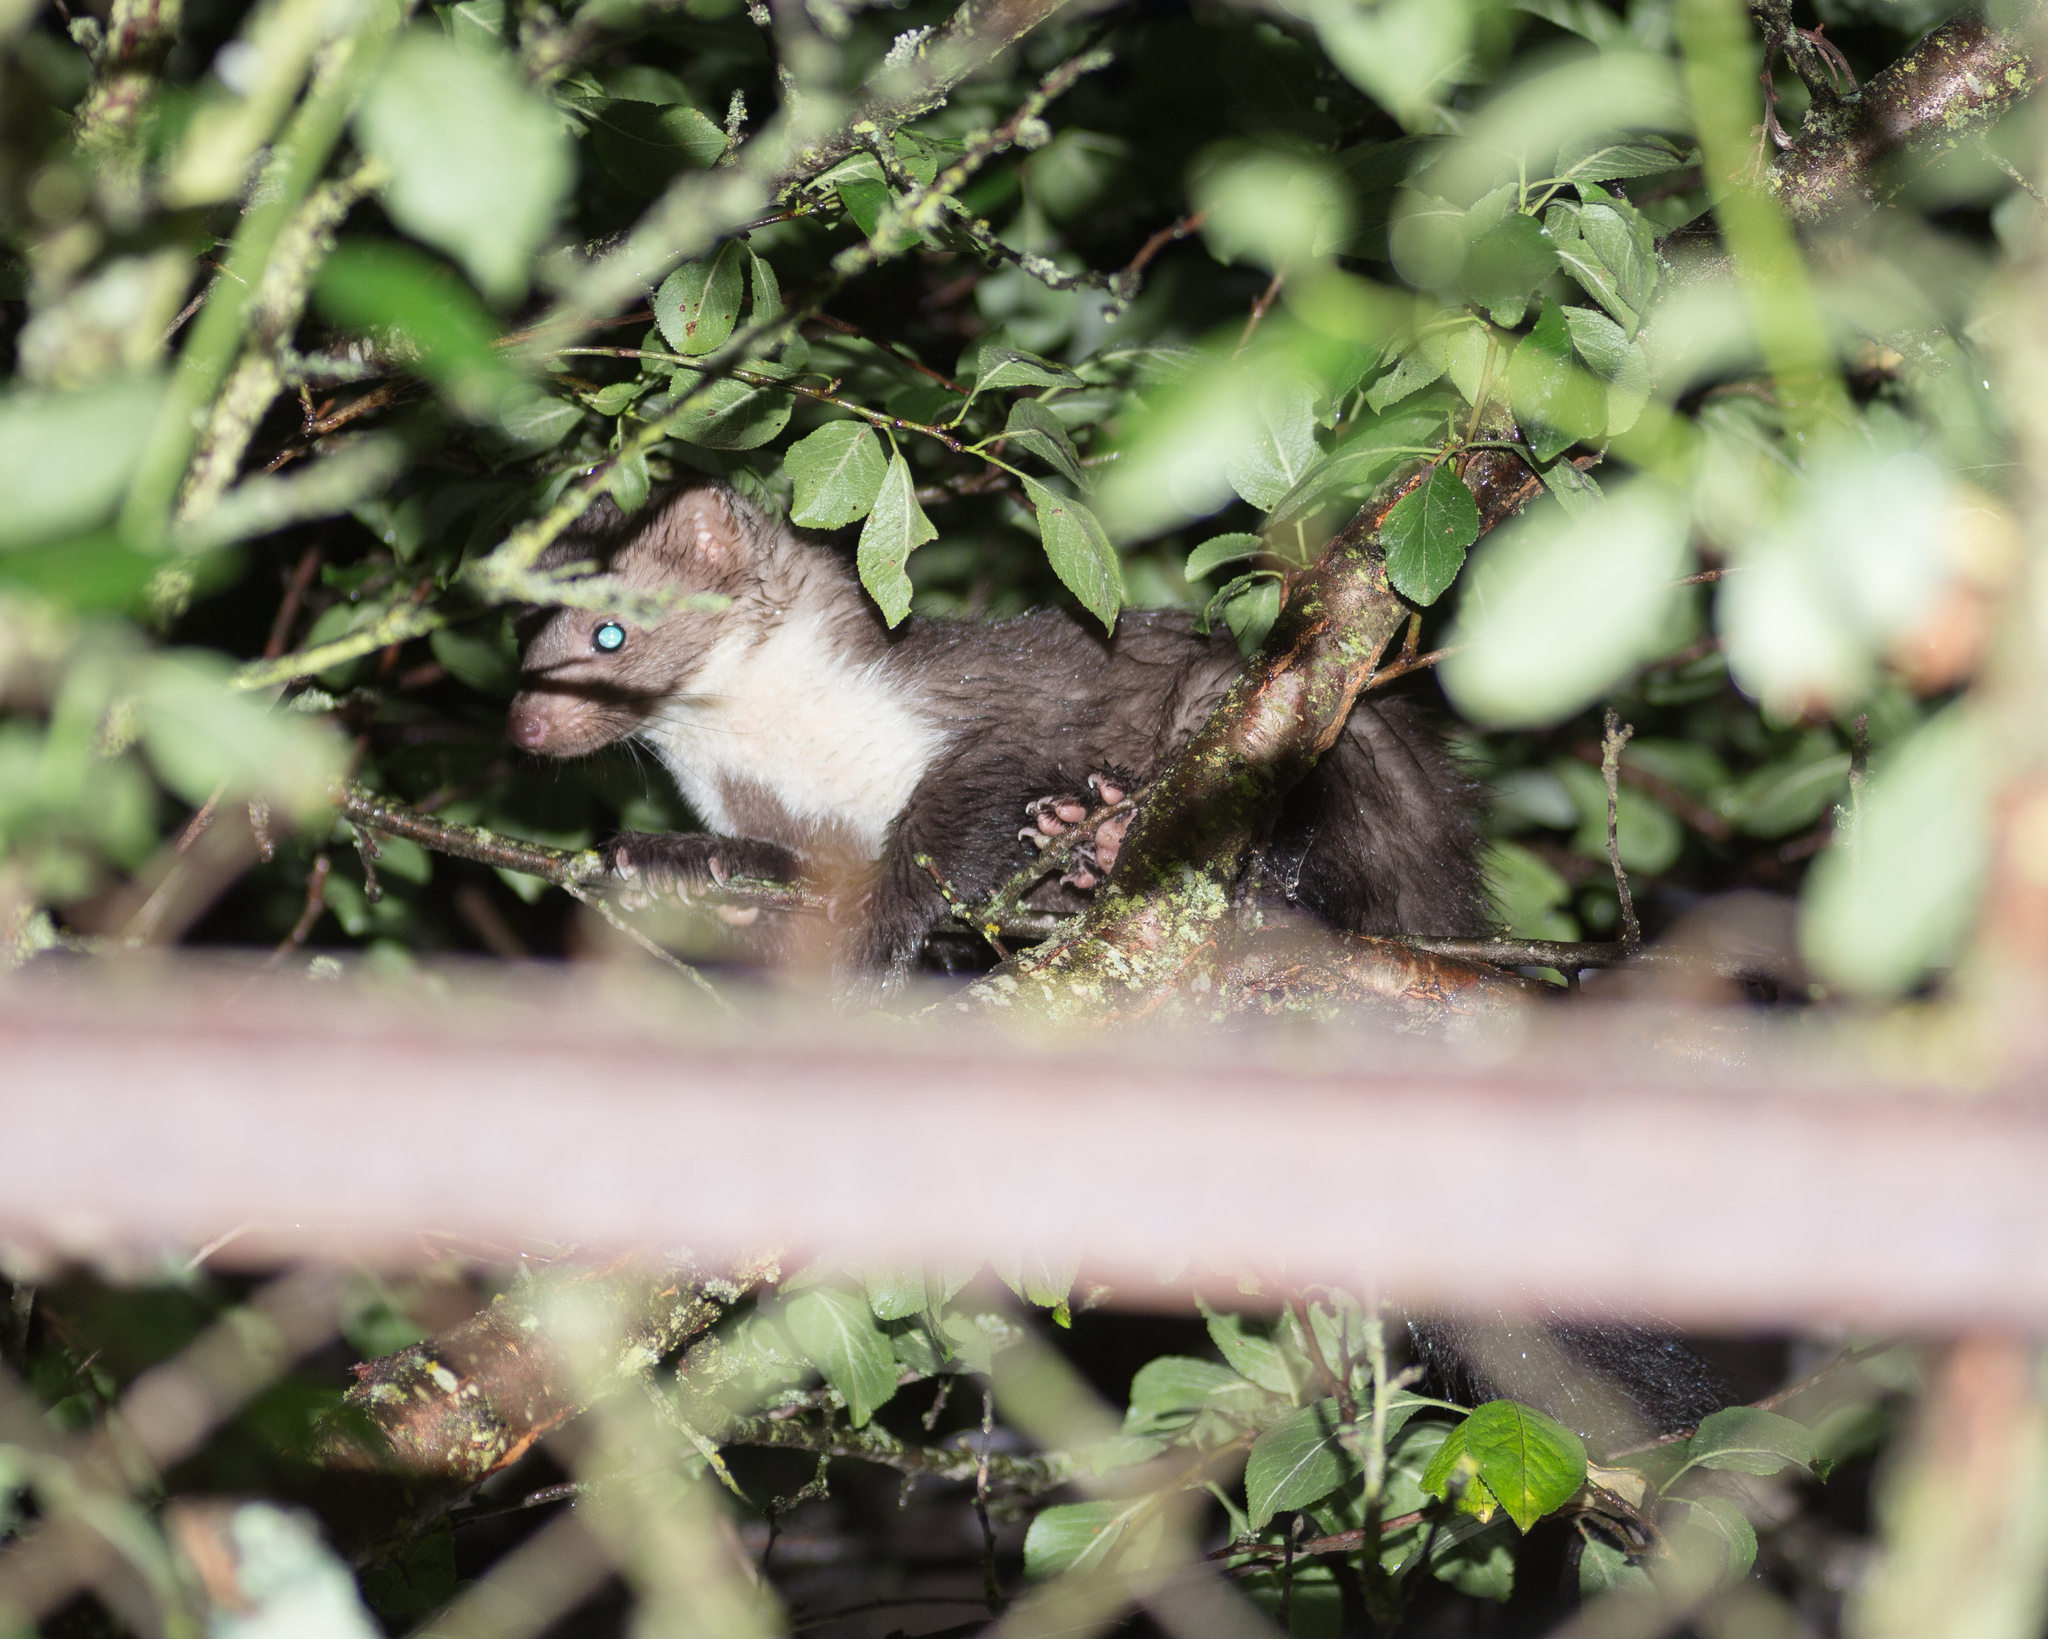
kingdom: Animalia
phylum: Chordata
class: Mammalia
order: Carnivora
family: Mustelidae
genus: Martes
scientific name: Martes foina
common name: Beech marten
